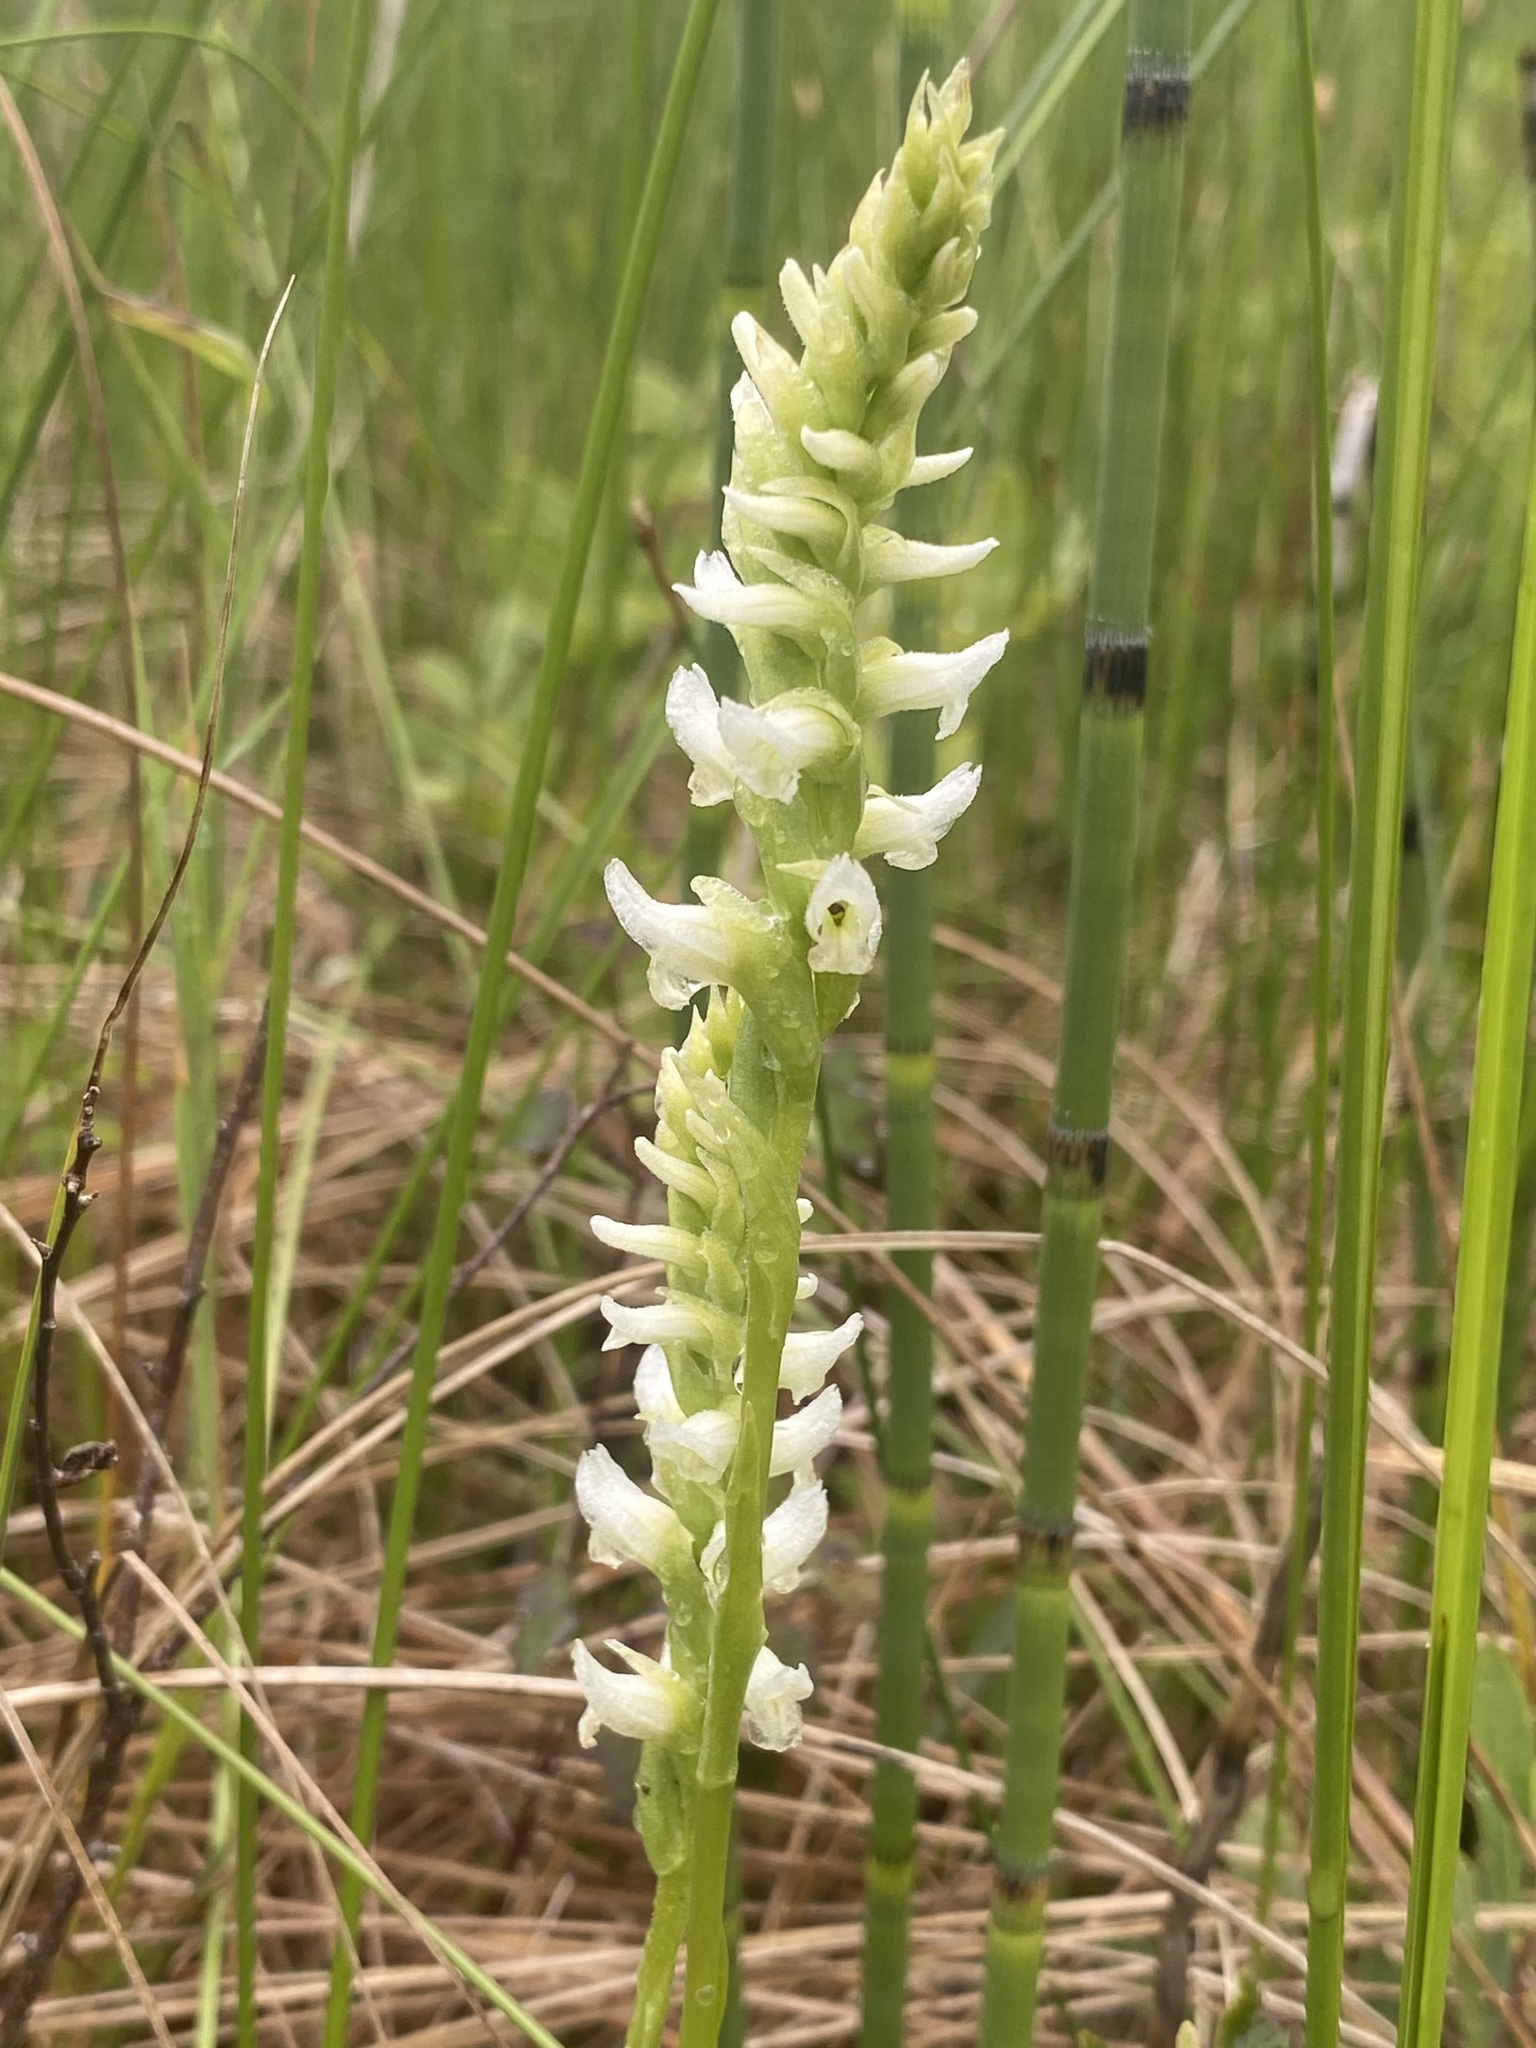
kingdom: Plantae
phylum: Tracheophyta
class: Liliopsida
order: Asparagales
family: Orchidaceae
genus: Spiranthes
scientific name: Spiranthes romanzoffiana
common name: Irish lady's-tresses
